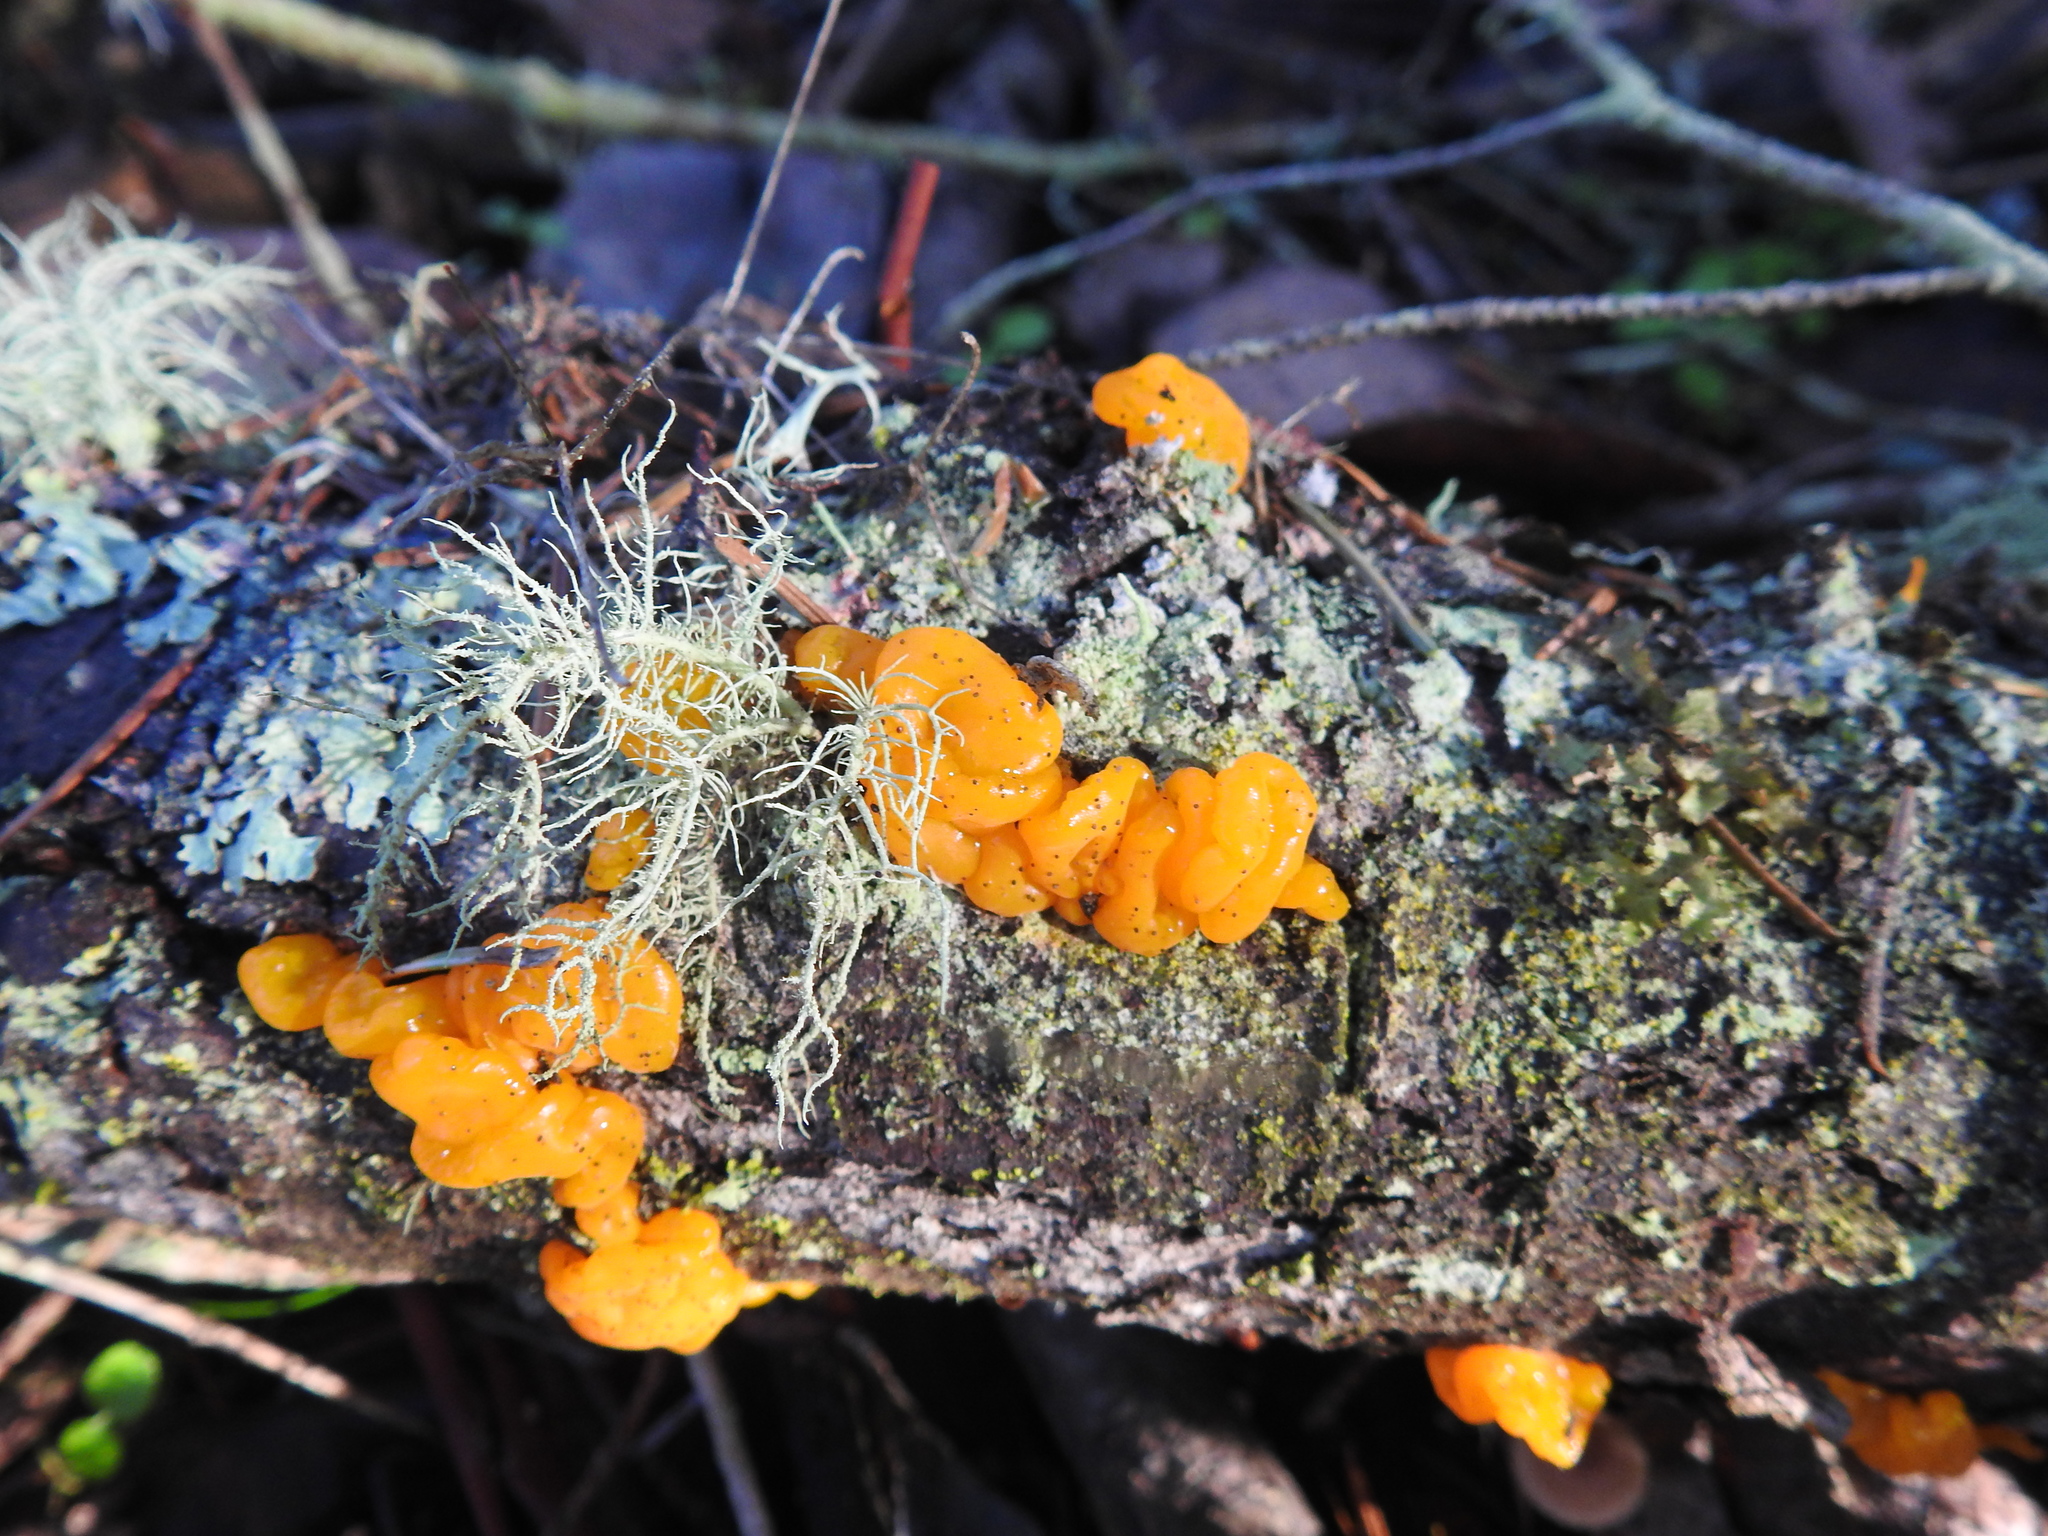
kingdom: Fungi
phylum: Basidiomycota
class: Dacrymycetes
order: Dacrymycetales
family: Dacrymycetaceae
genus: Dacrymyces
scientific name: Dacrymyces chrysospermus
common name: Orange jelly spot
